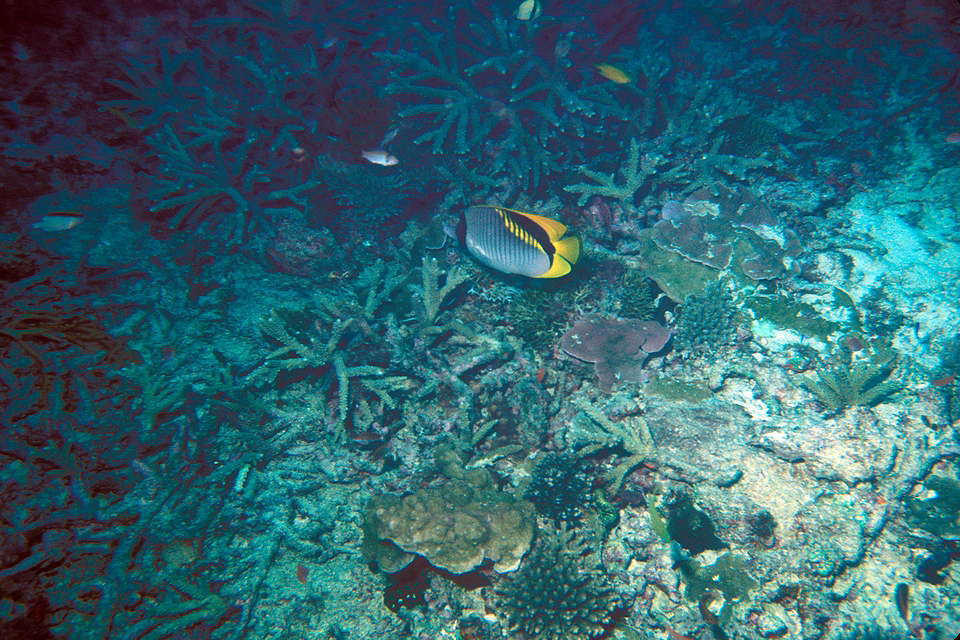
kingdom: Animalia
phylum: Chordata
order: Perciformes
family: Chaetodontidae
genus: Chaetodon
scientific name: Chaetodon lineolatus
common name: Lined butterflyfish
